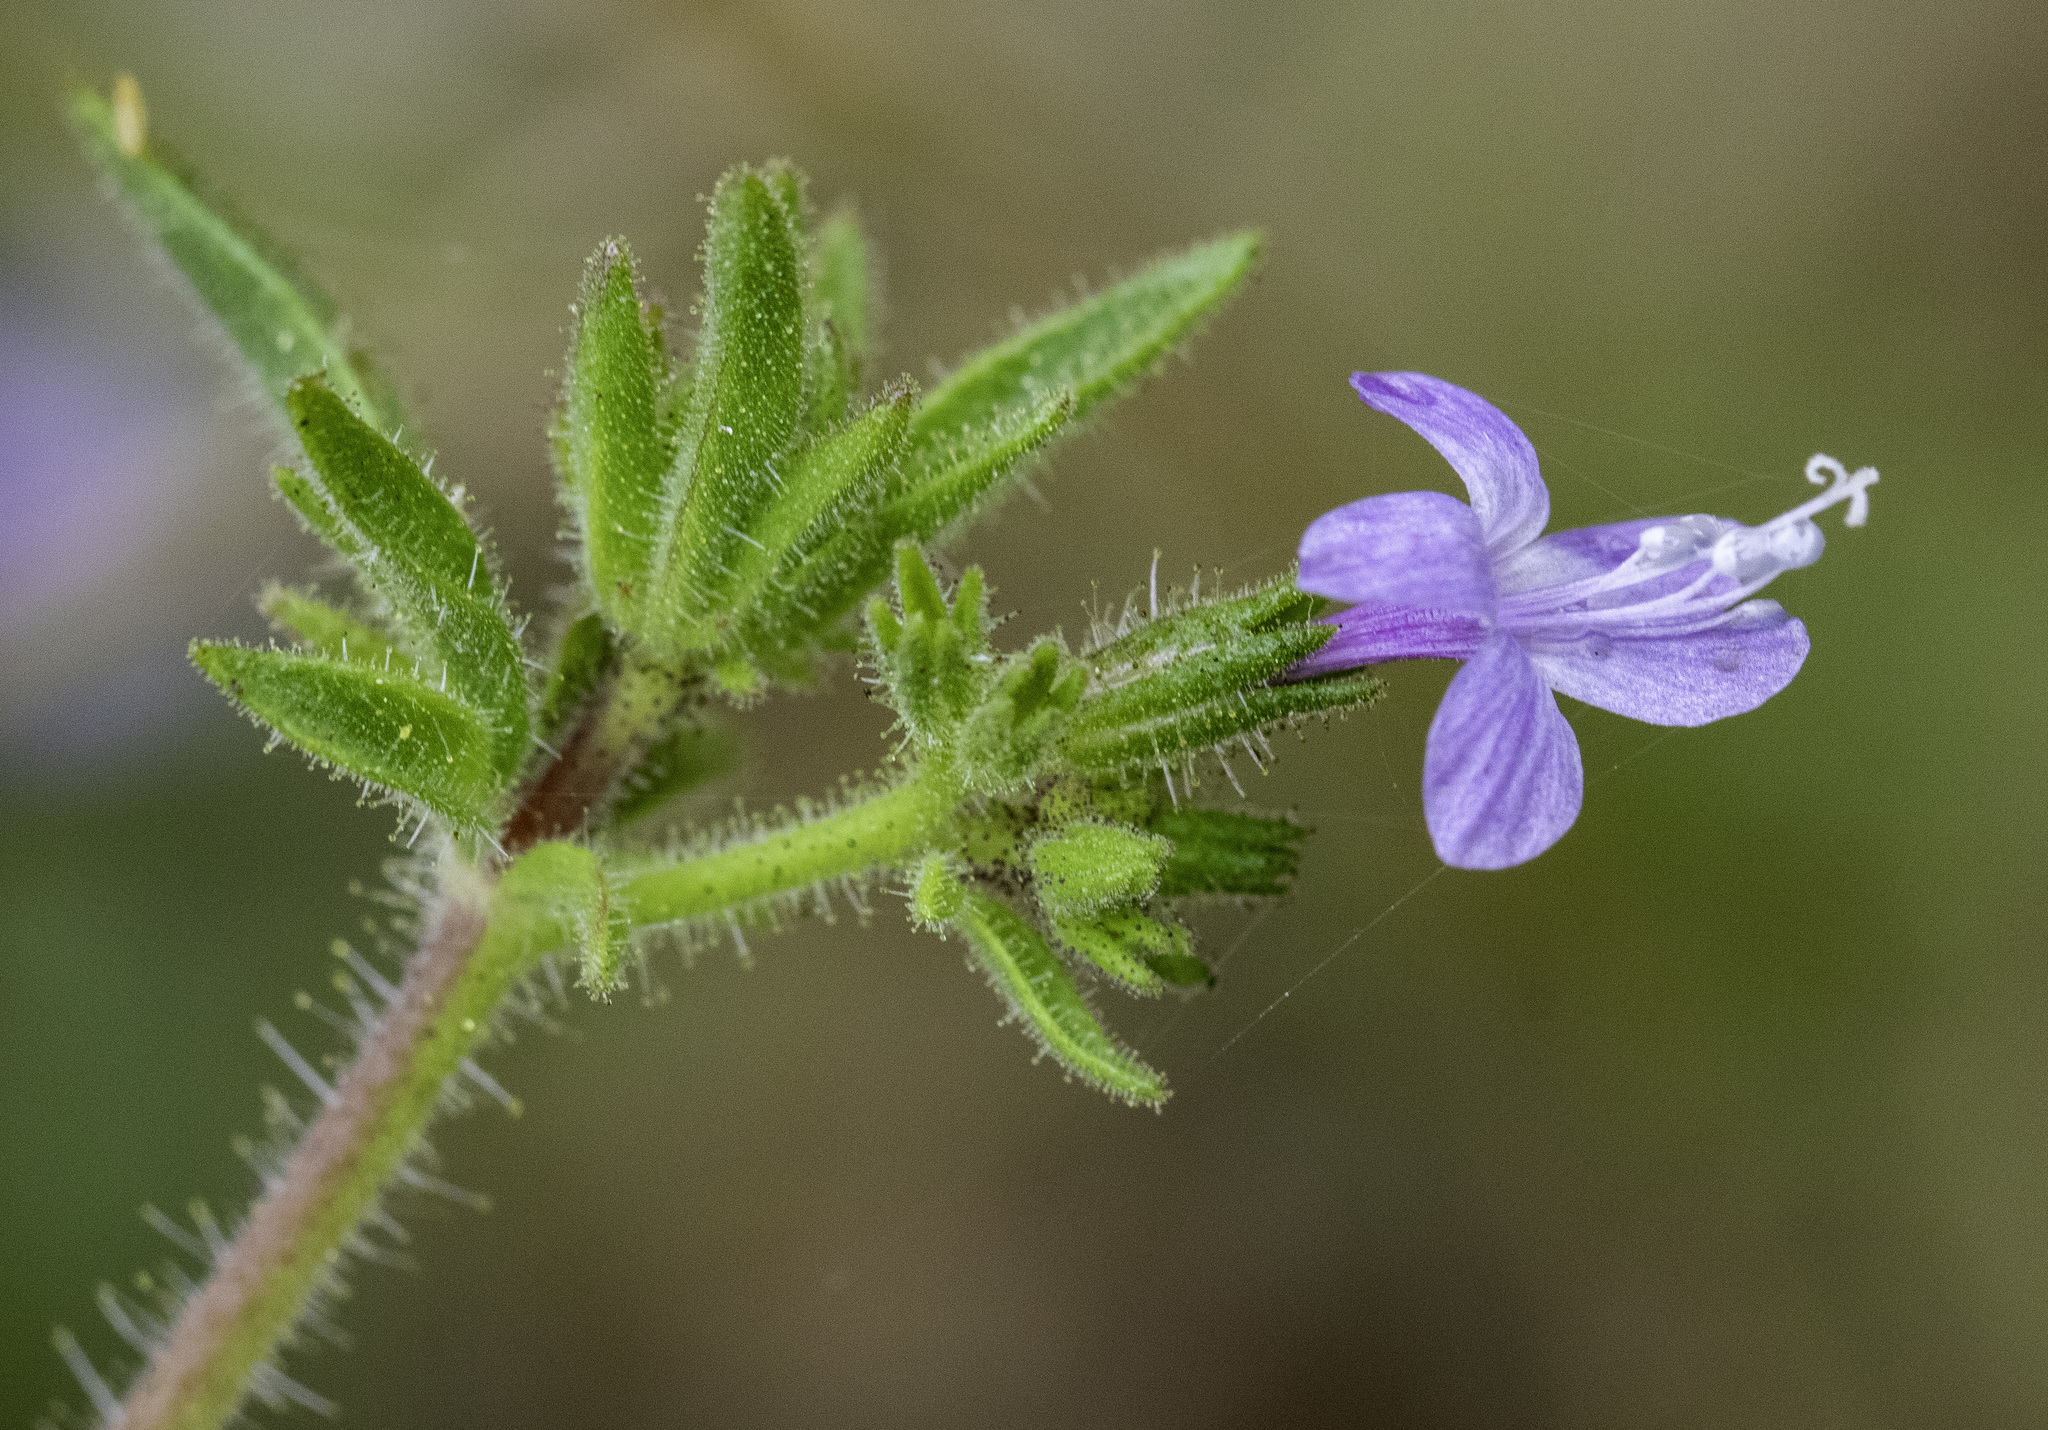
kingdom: Plantae
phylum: Tracheophyta
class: Magnoliopsida
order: Ericales
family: Polemoniaceae
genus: Allophyllum
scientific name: Allophyllum glutinosum
